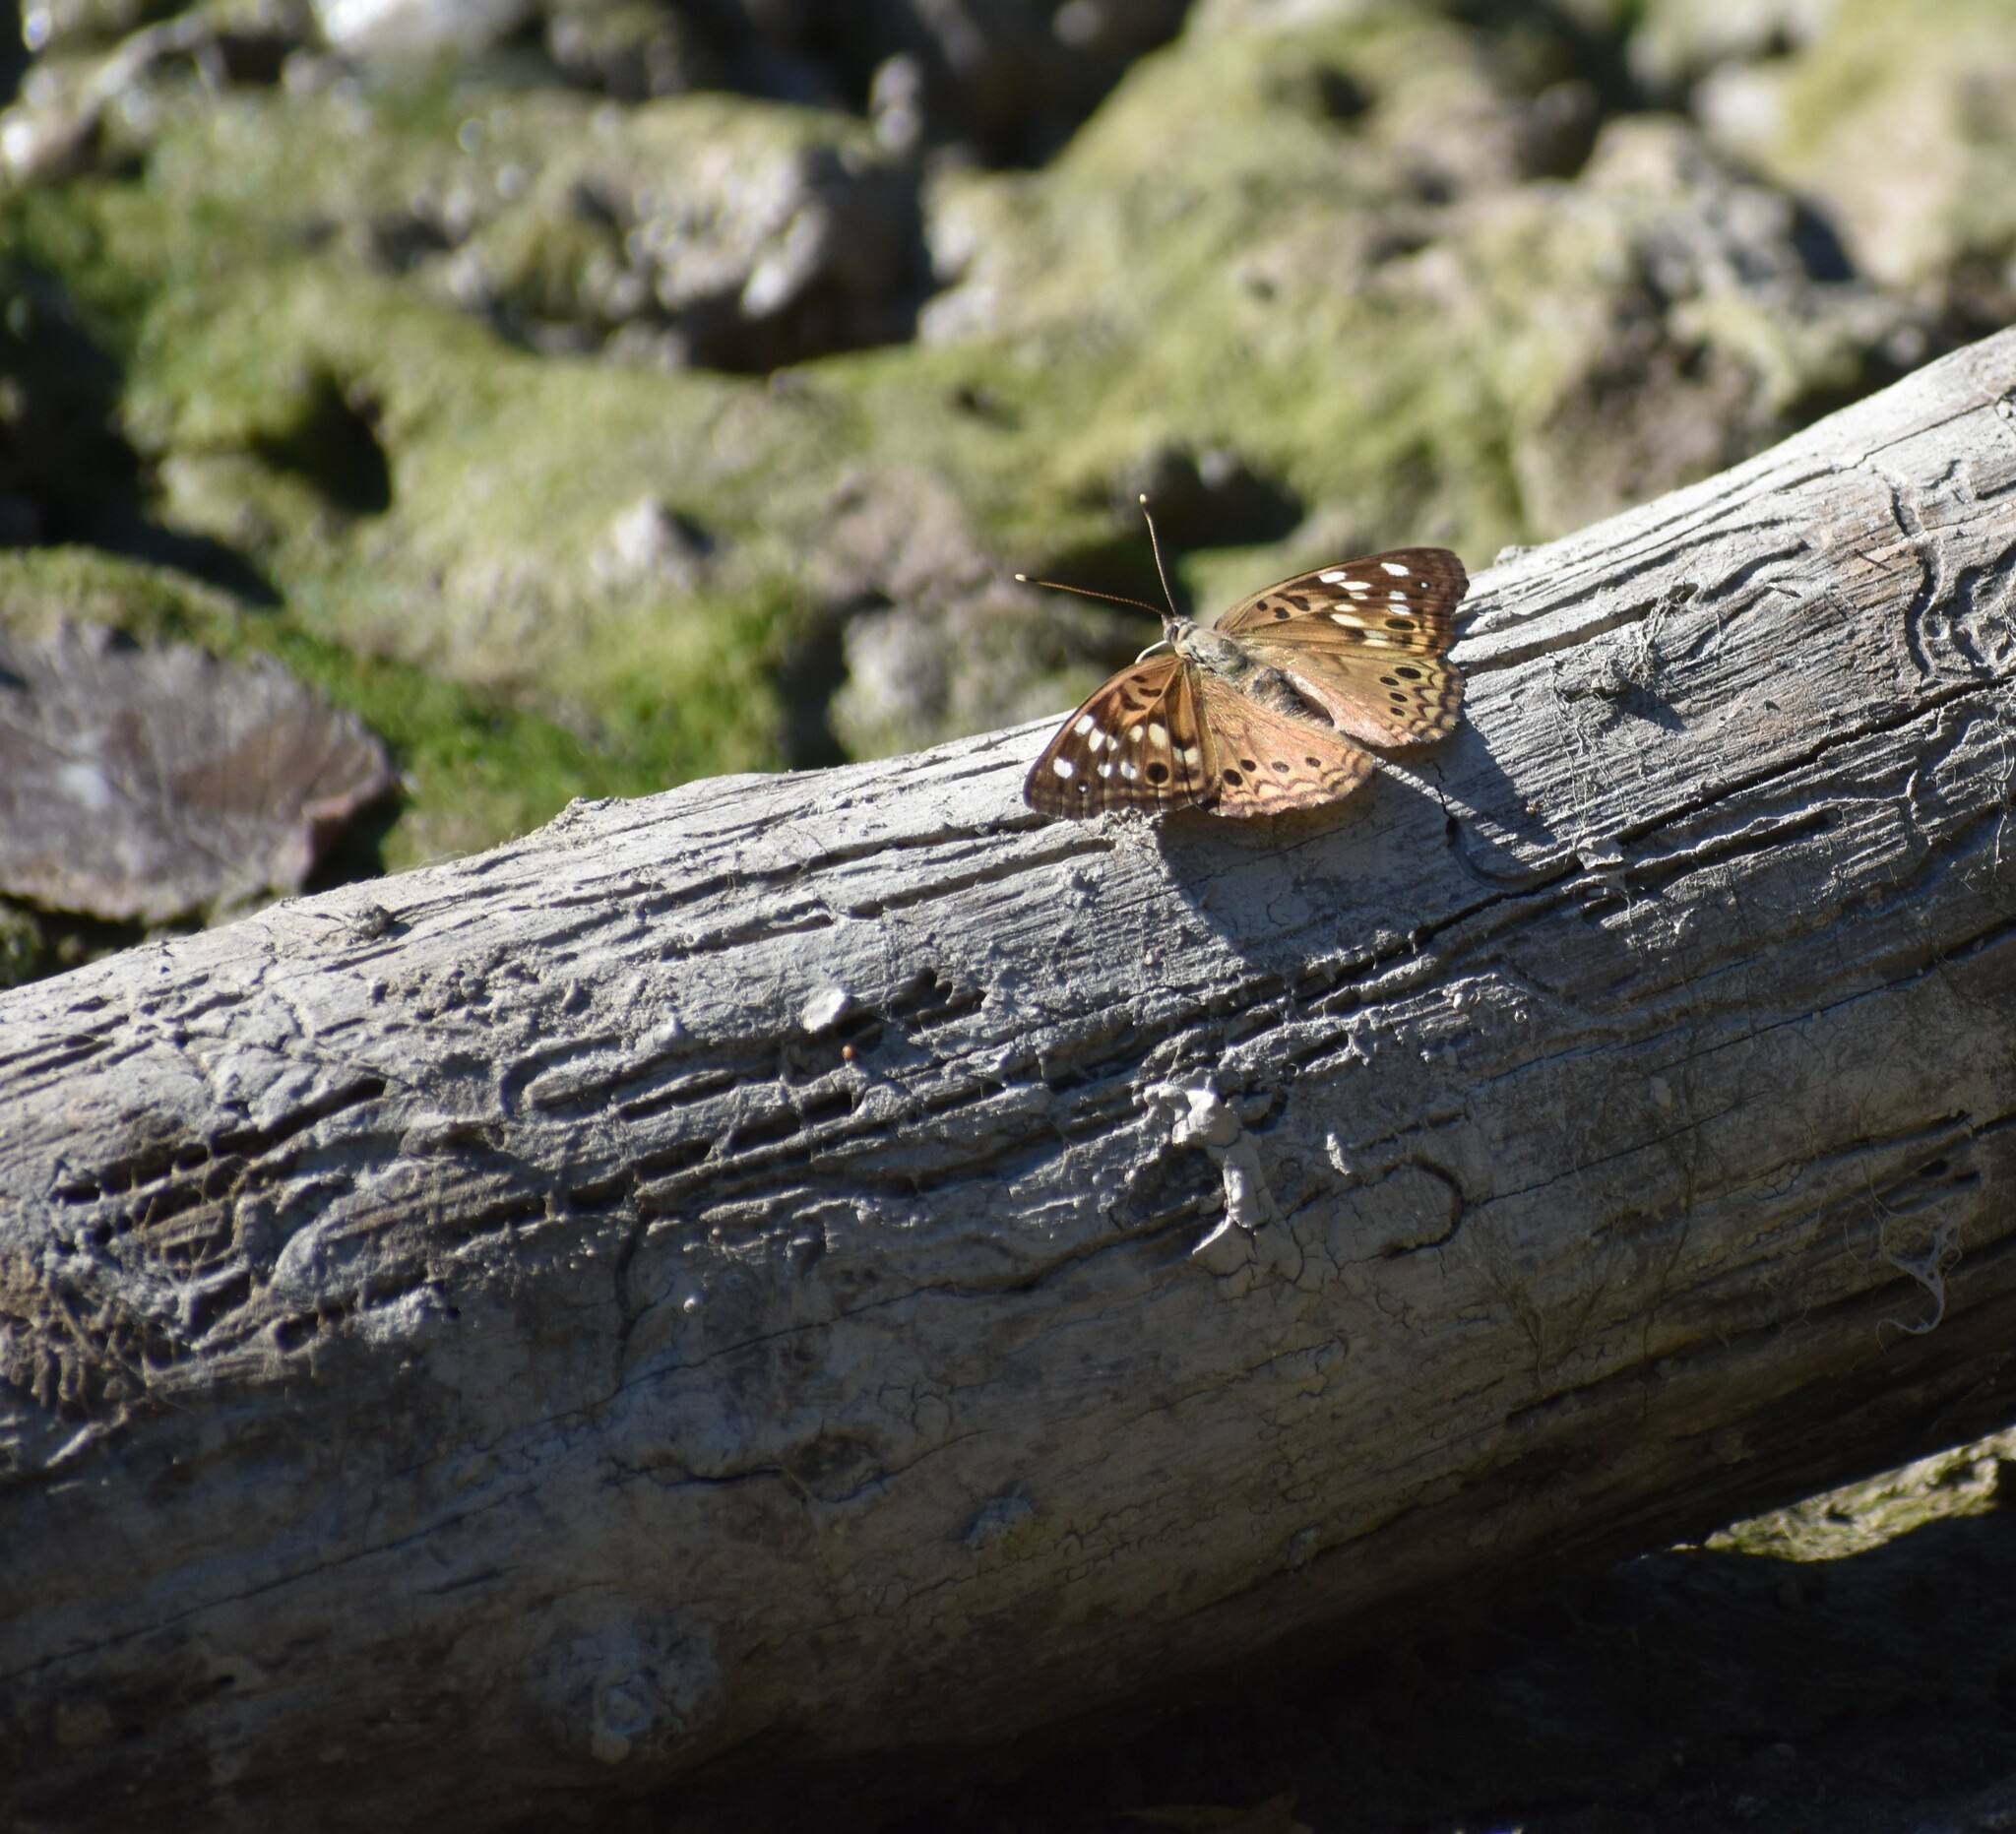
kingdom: Animalia
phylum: Arthropoda
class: Insecta
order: Lepidoptera
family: Nymphalidae
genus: Asterocampa
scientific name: Asterocampa celtis
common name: Hackberry emperor
